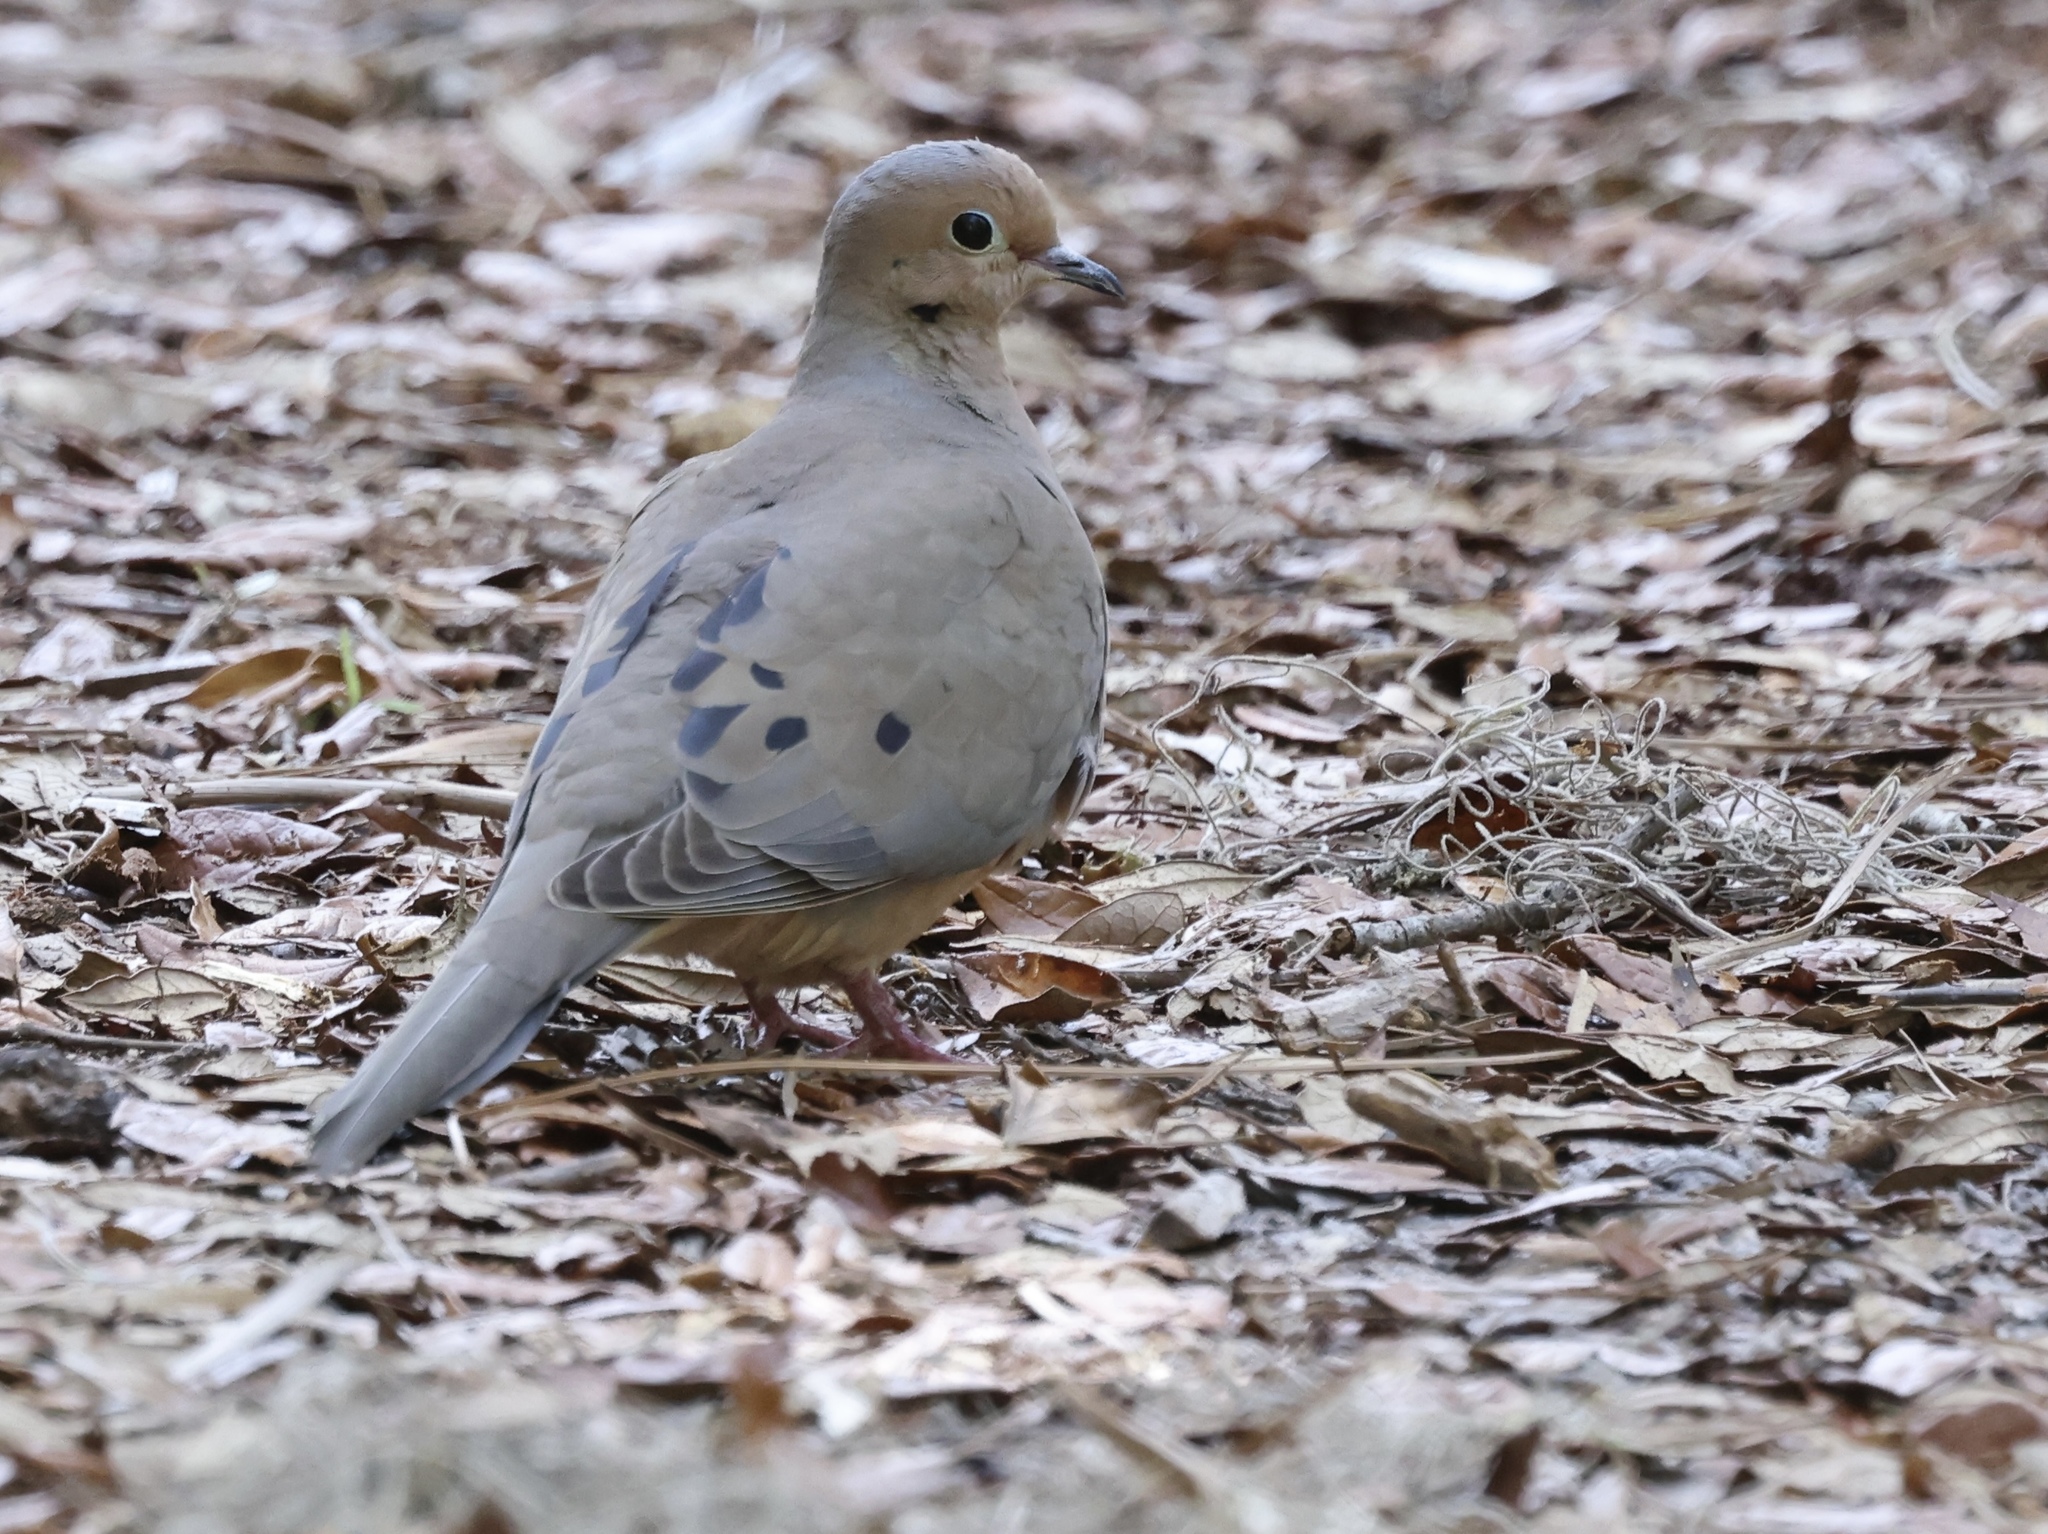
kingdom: Animalia
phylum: Chordata
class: Aves
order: Columbiformes
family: Columbidae
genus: Zenaida
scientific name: Zenaida macroura
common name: Mourning dove
